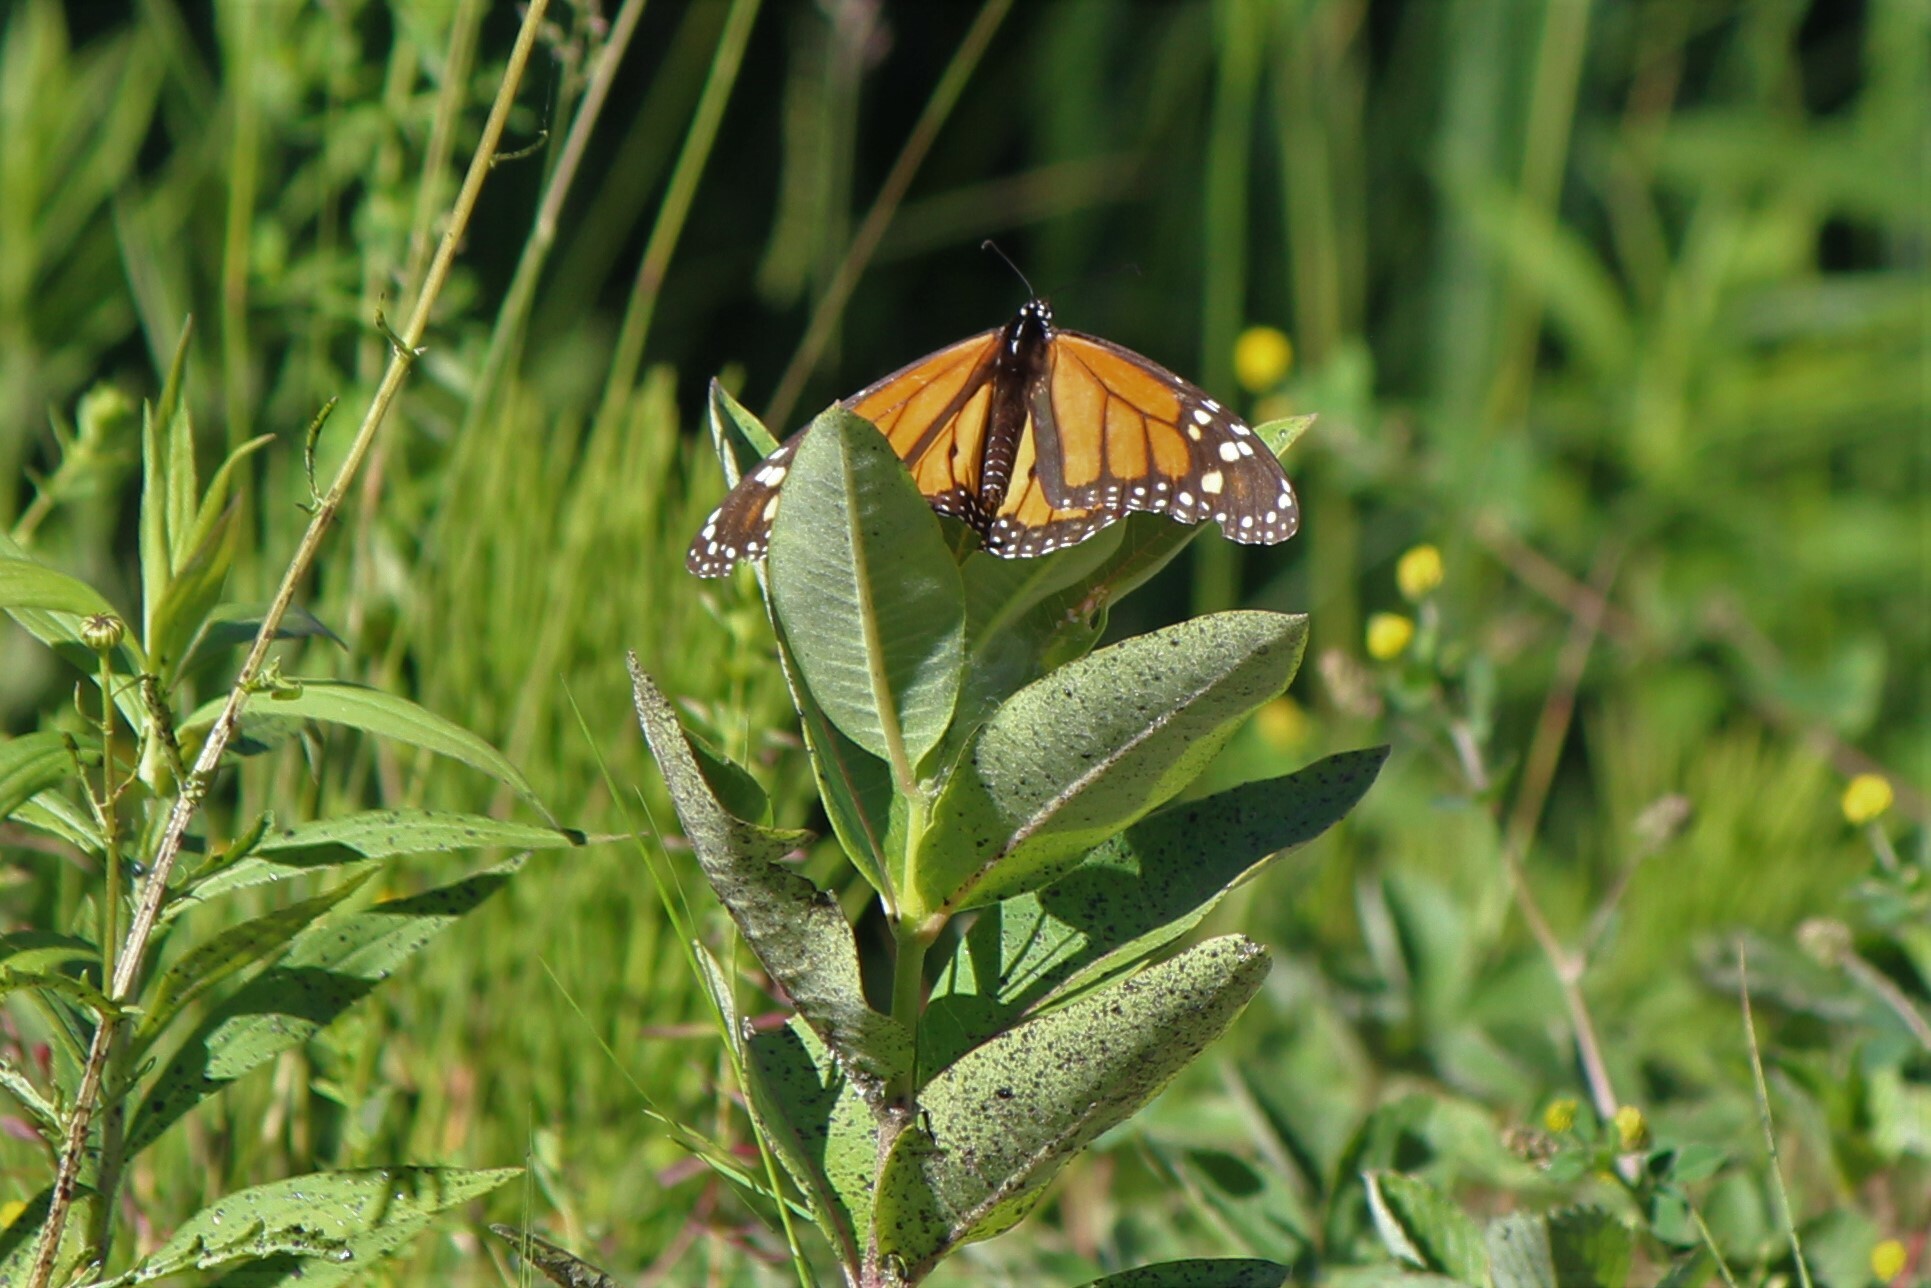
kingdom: Animalia
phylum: Arthropoda
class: Insecta
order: Lepidoptera
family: Nymphalidae
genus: Danaus
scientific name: Danaus plexippus
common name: Monarch
